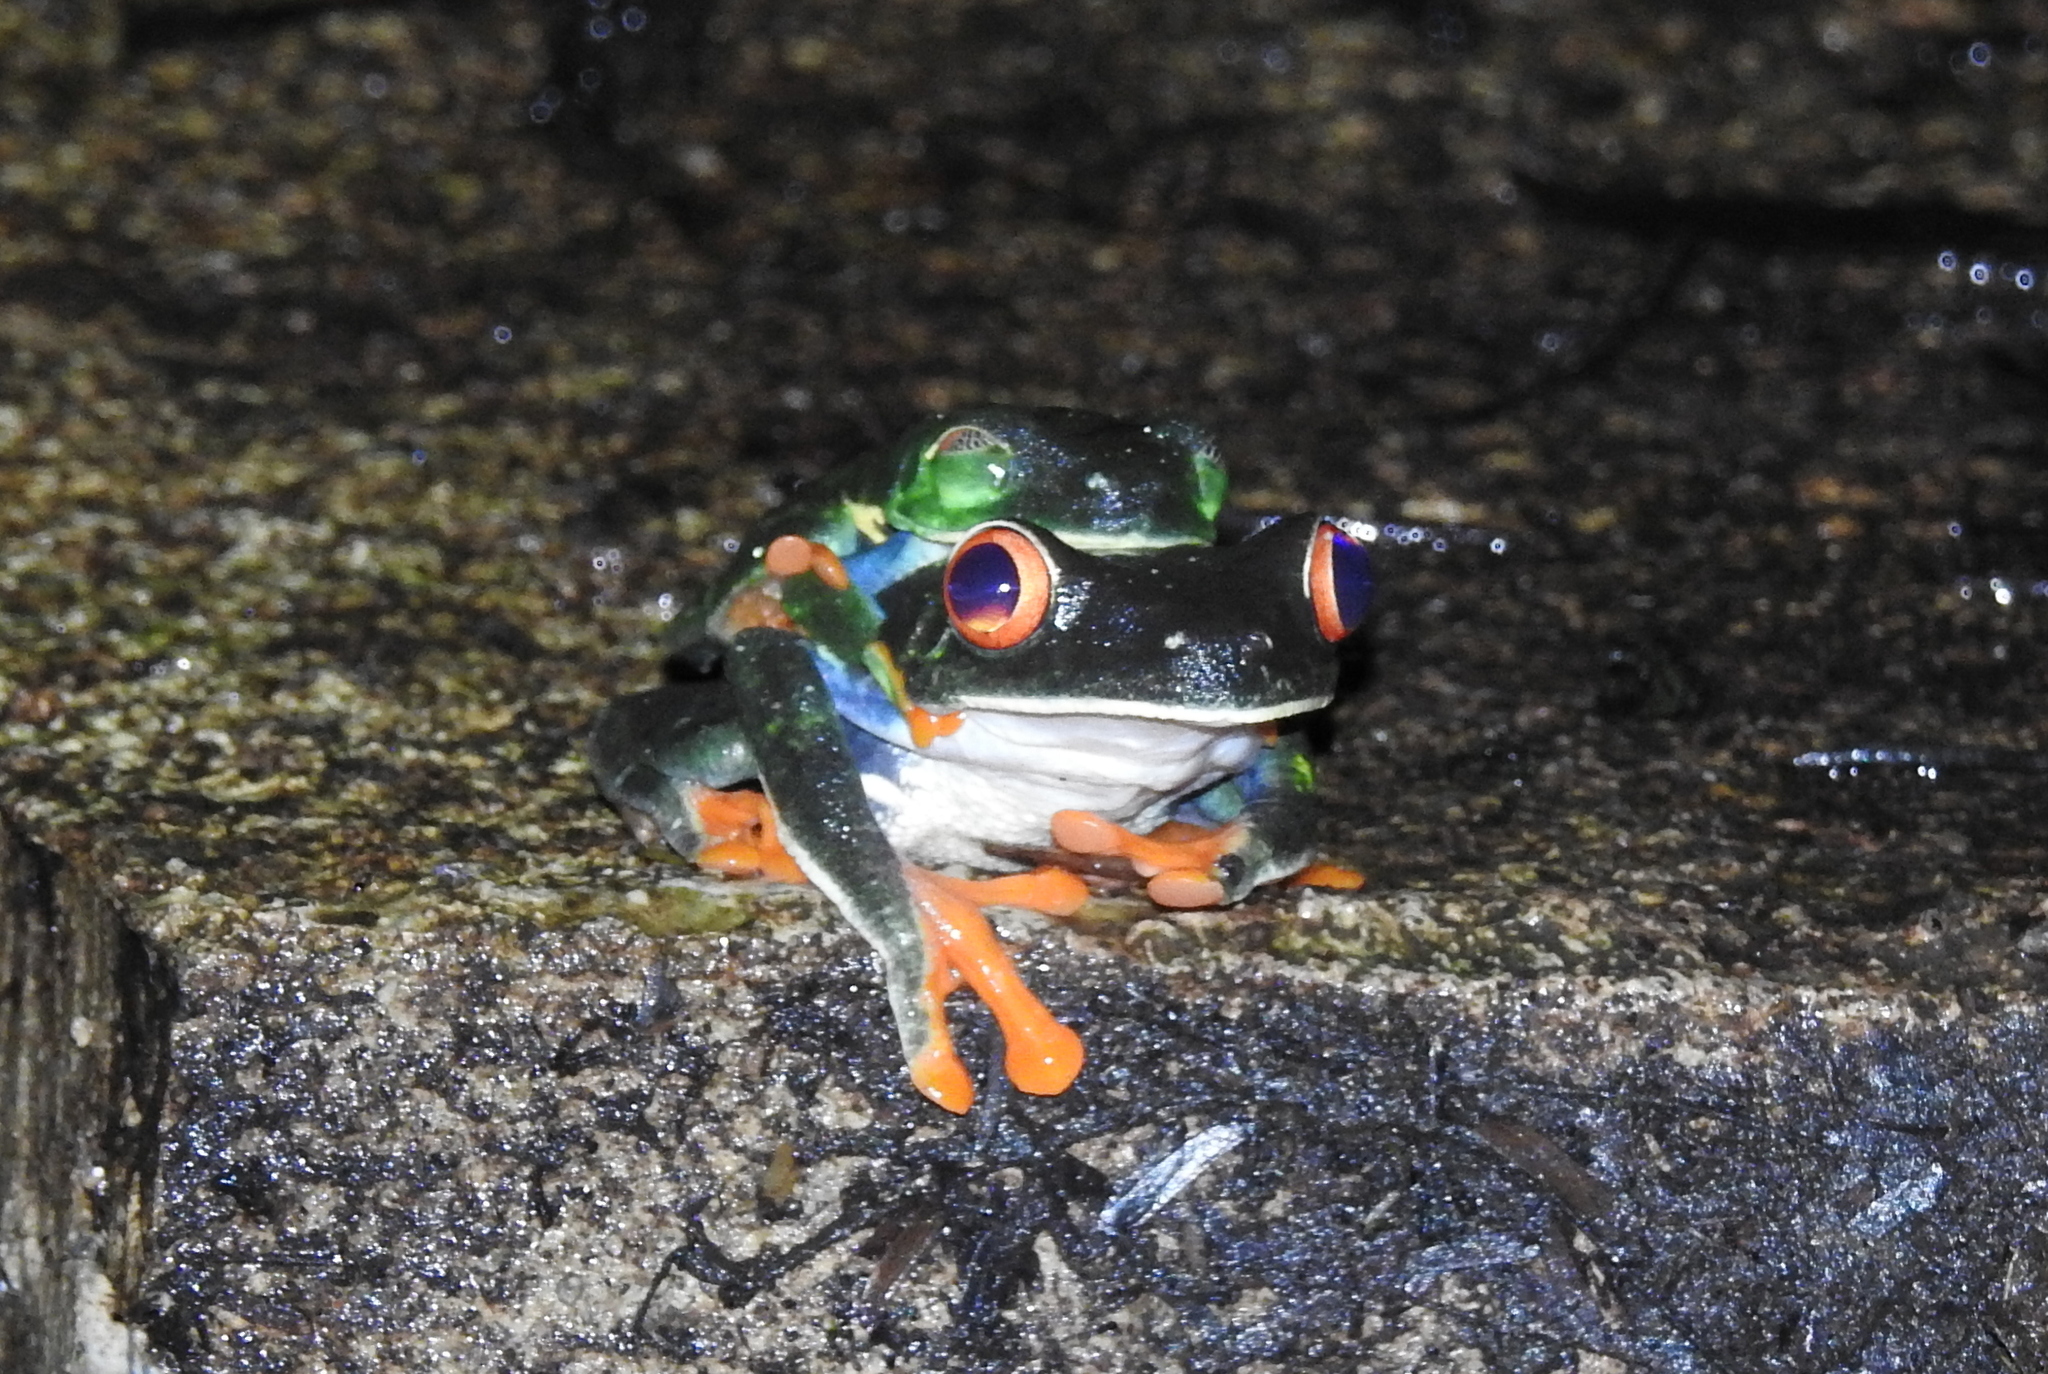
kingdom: Animalia
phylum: Chordata
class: Amphibia
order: Anura
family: Phyllomedusidae
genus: Agalychnis
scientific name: Agalychnis callidryas
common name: Red-eyed treefrog
